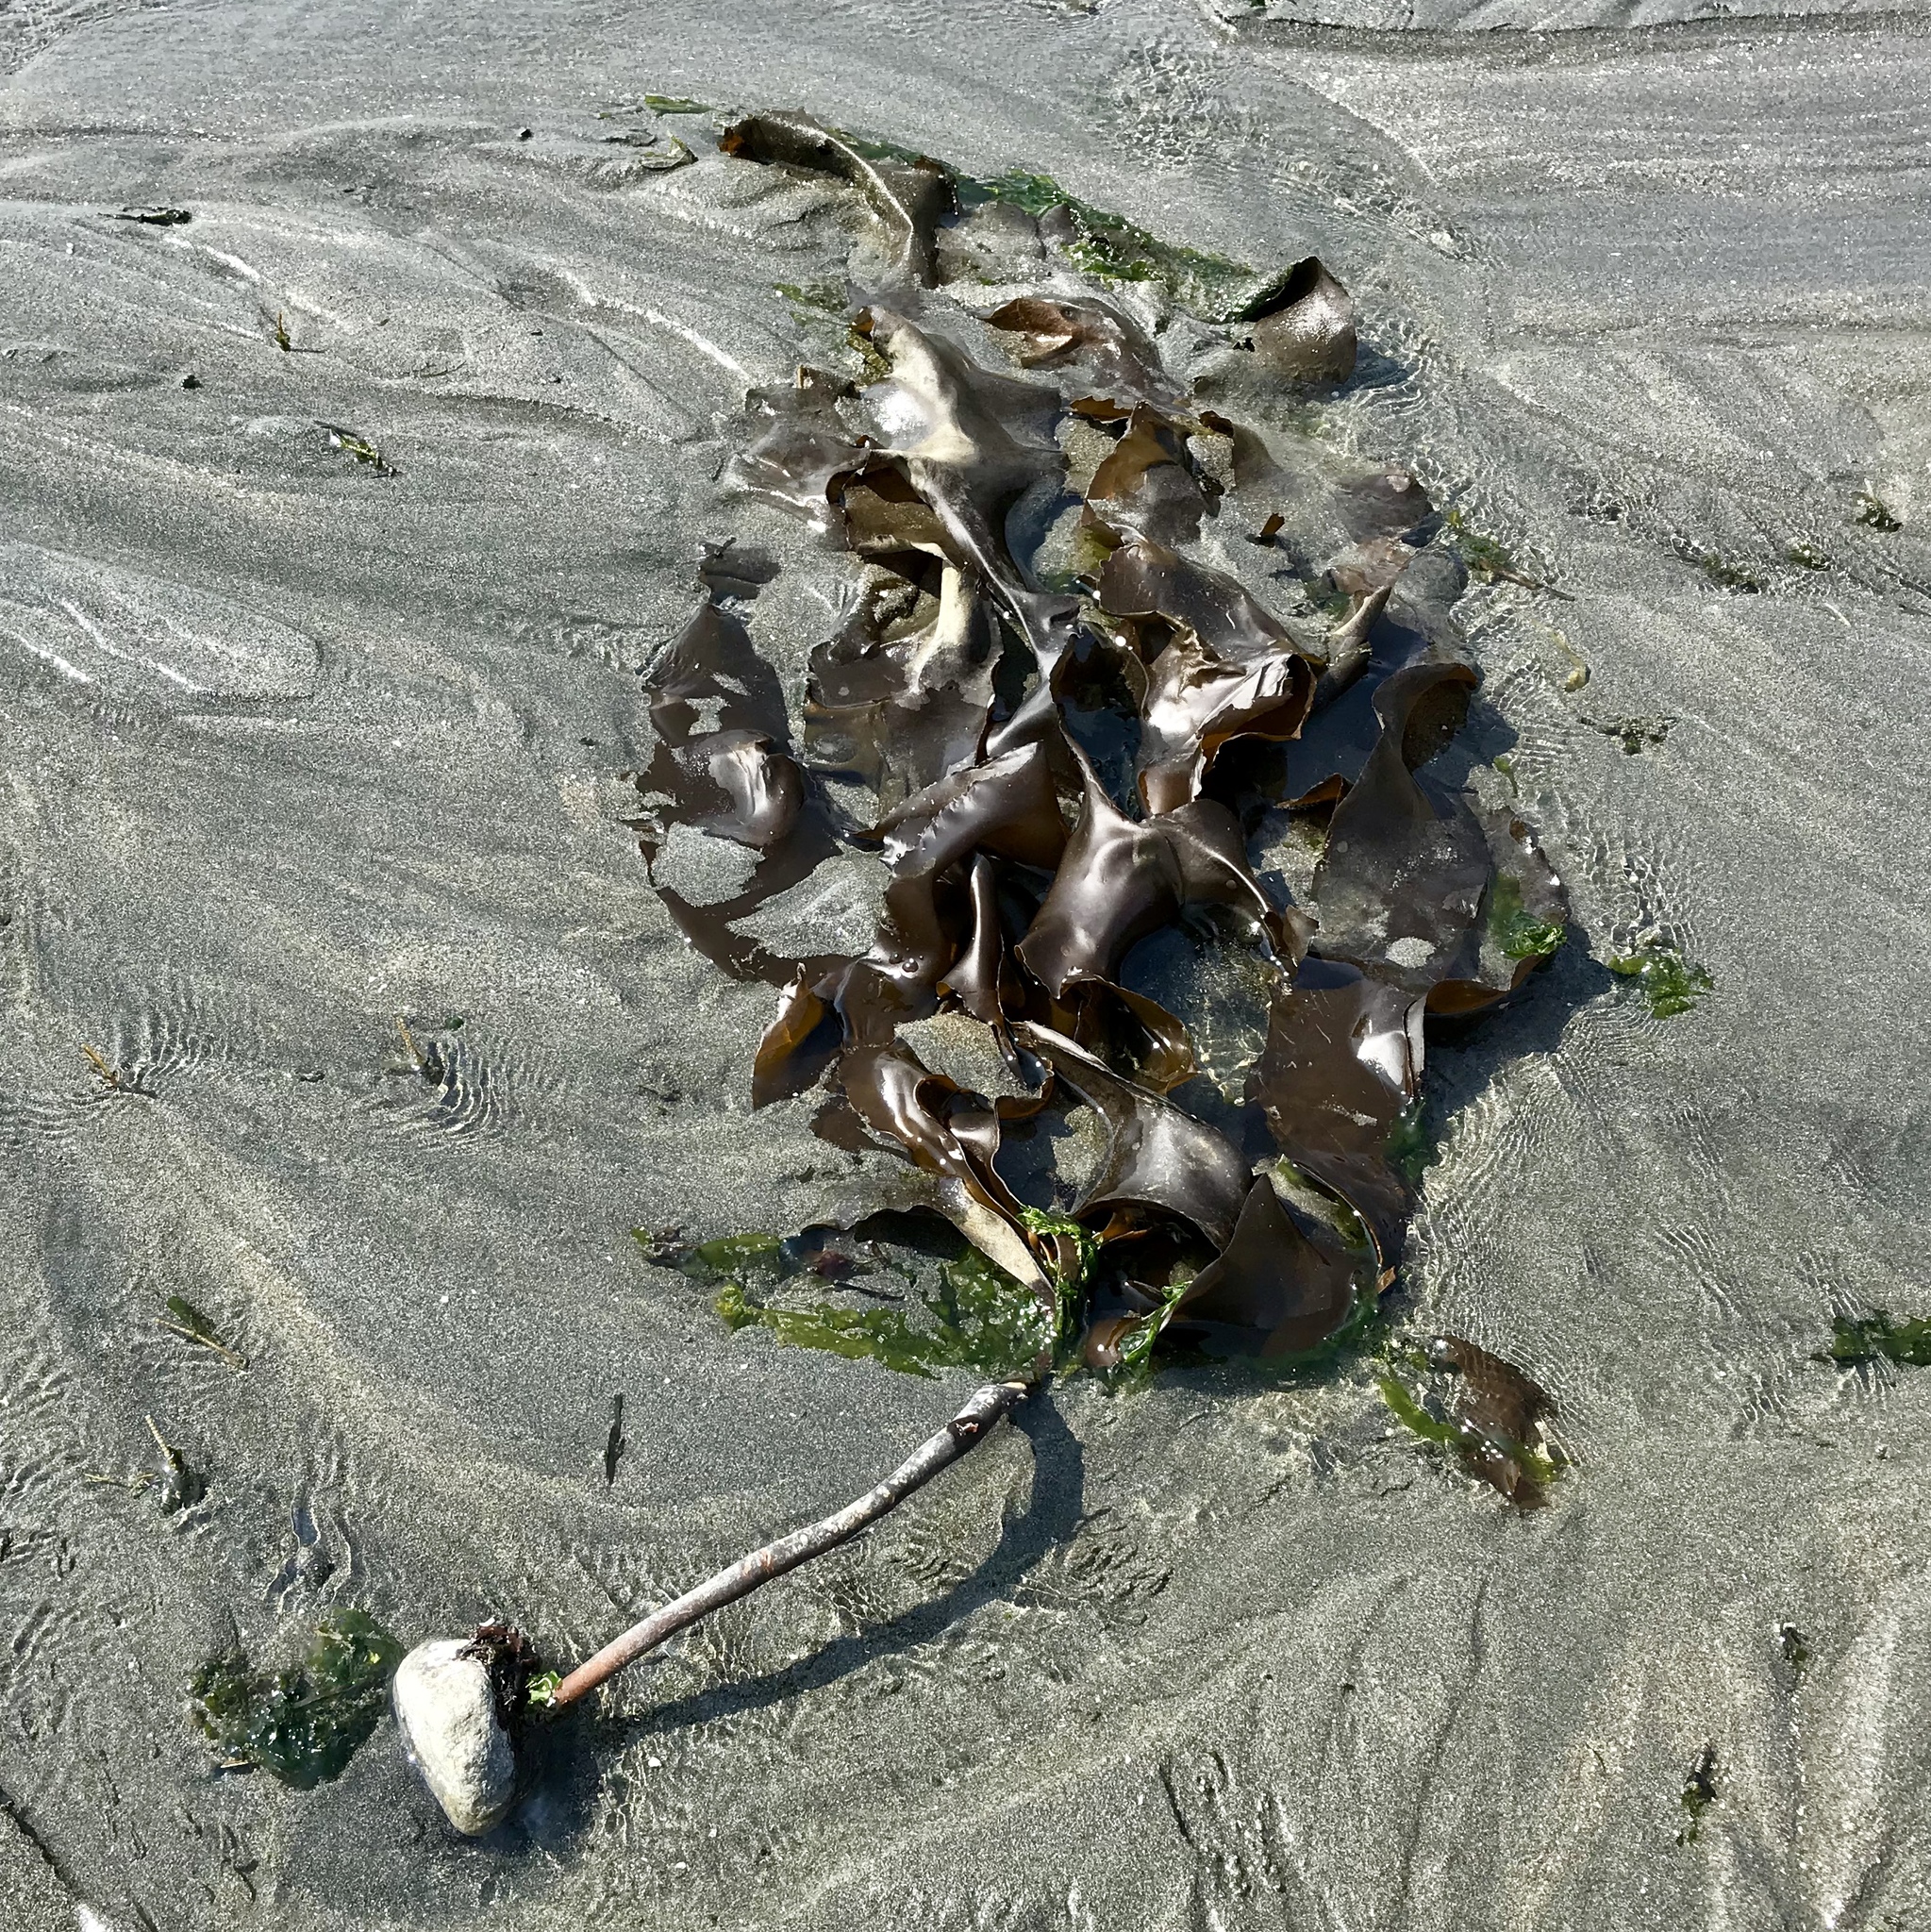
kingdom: Chromista
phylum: Ochrophyta
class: Phaeophyceae
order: Laminariales
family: Alariaceae
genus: Pterygophora
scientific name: Pterygophora californica
